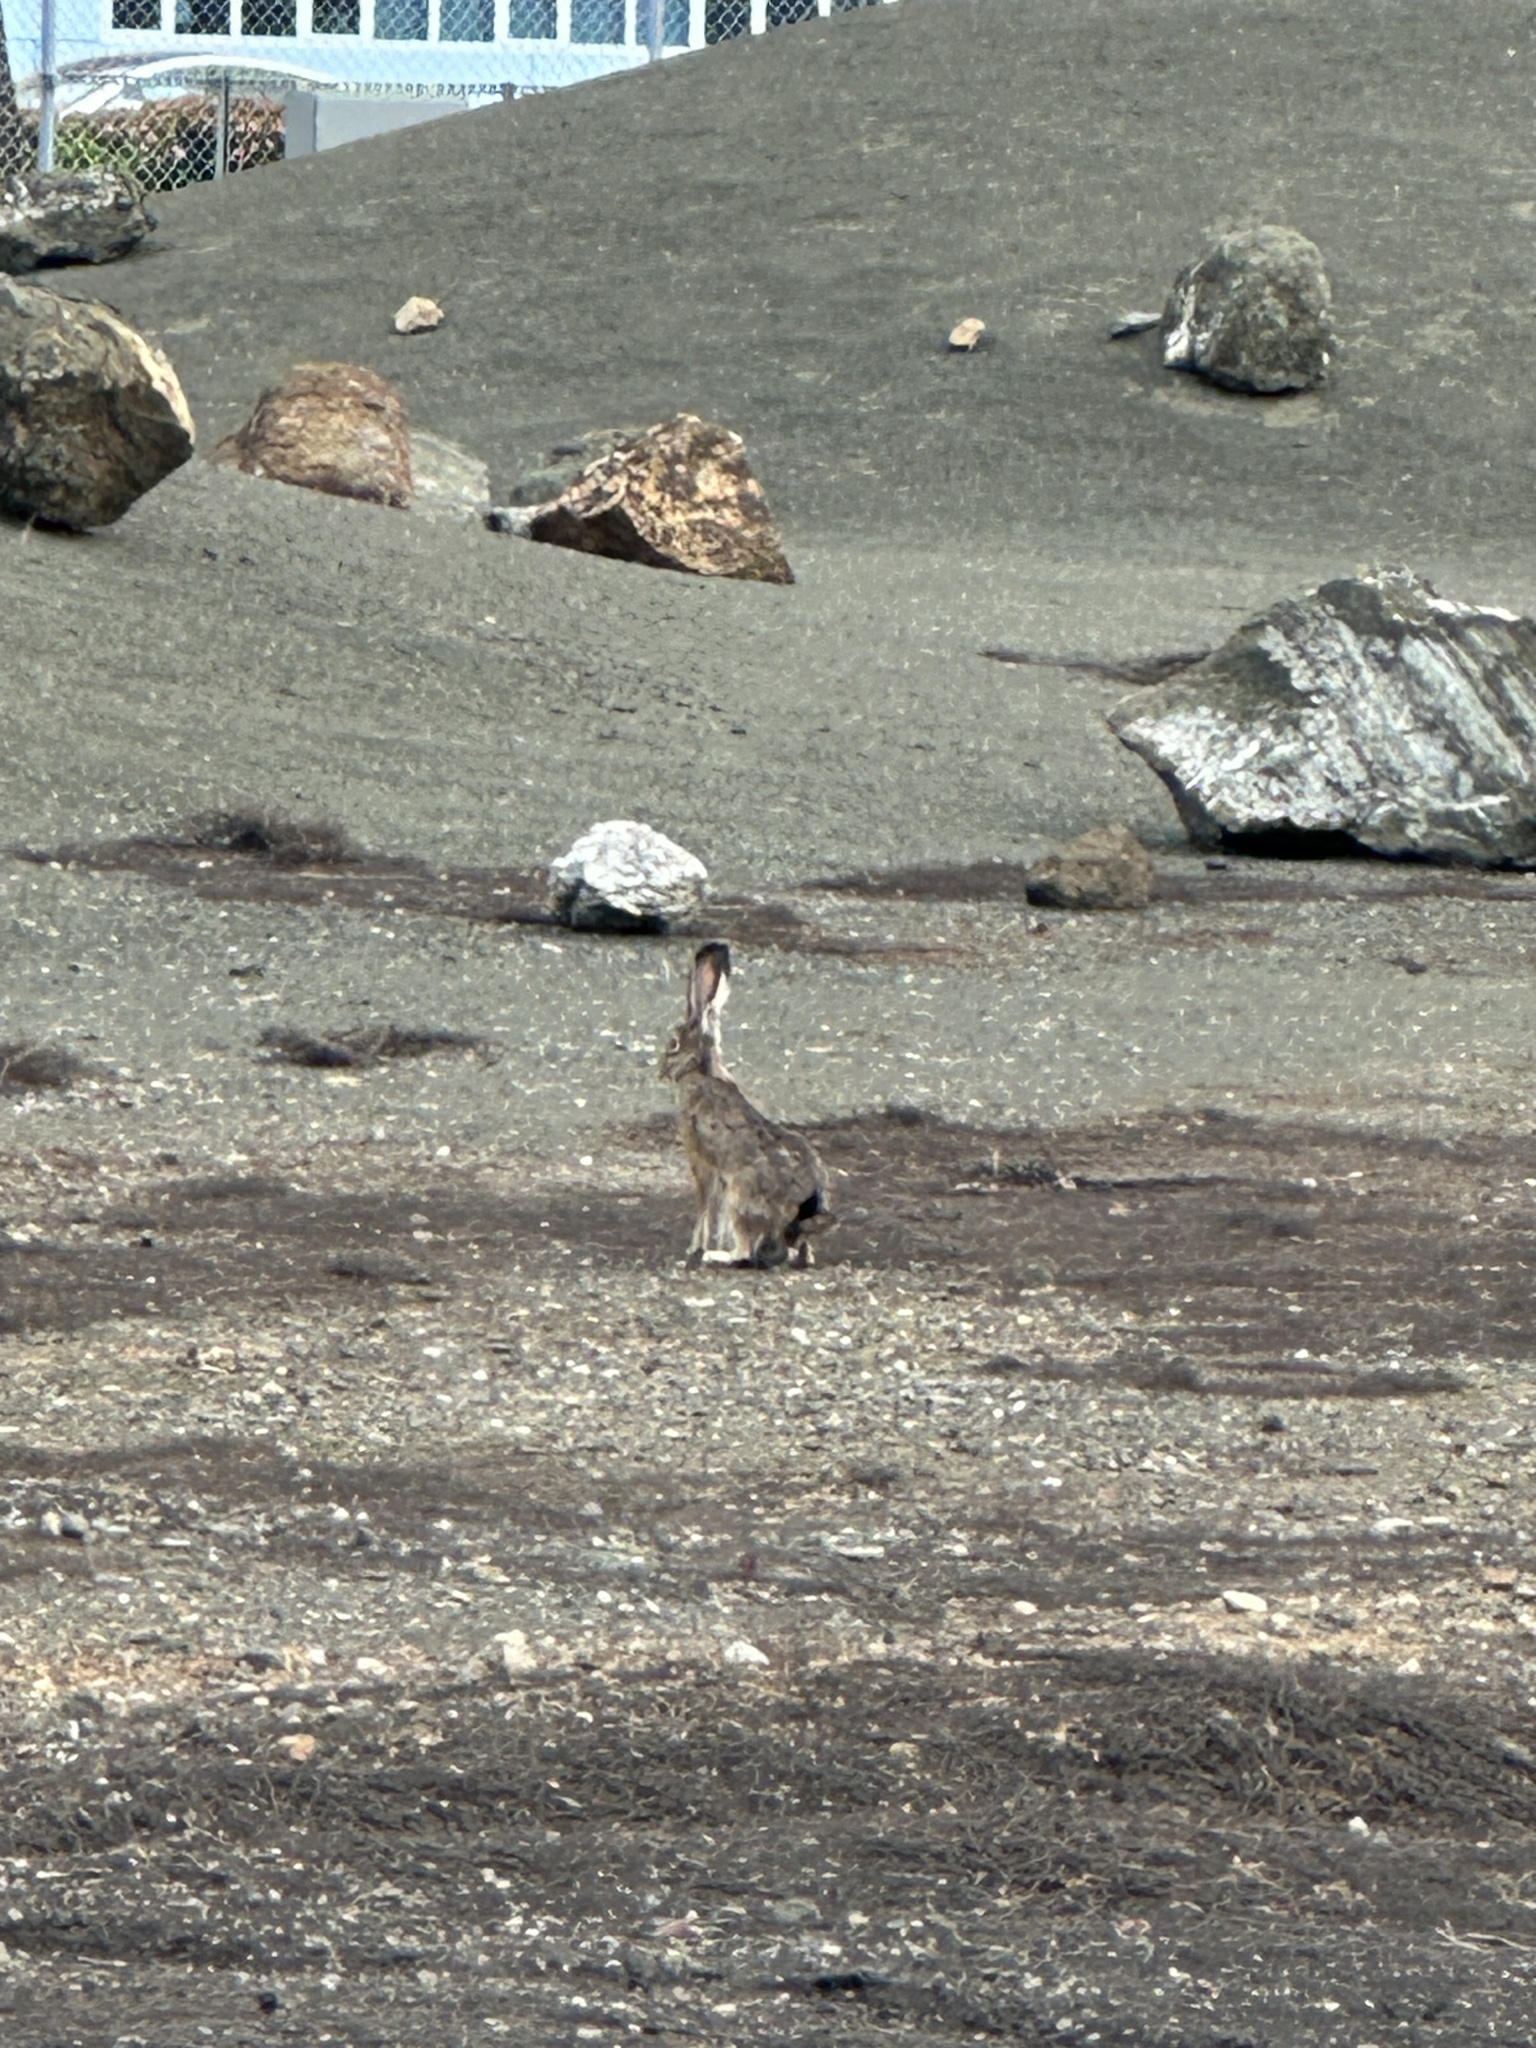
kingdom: Animalia
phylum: Chordata
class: Mammalia
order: Lagomorpha
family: Leporidae
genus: Lepus
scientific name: Lepus californicus
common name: Black-tailed jackrabbit
